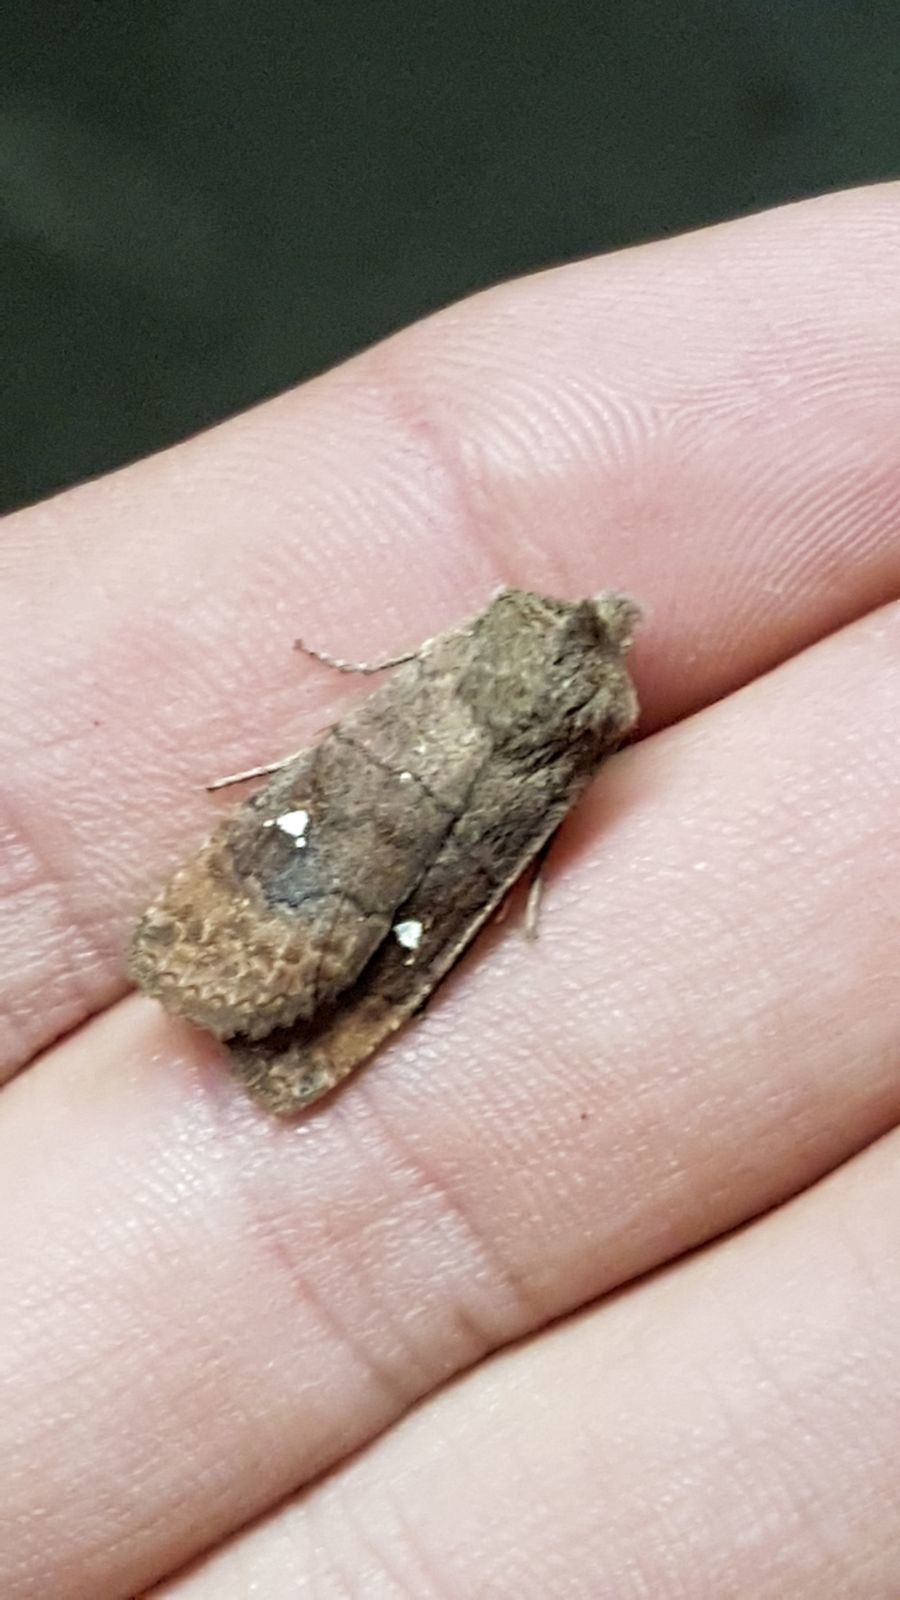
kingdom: Animalia
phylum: Arthropoda
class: Insecta
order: Lepidoptera
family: Noctuidae
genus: Eupsilia
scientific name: Eupsilia transversa
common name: Satellite
